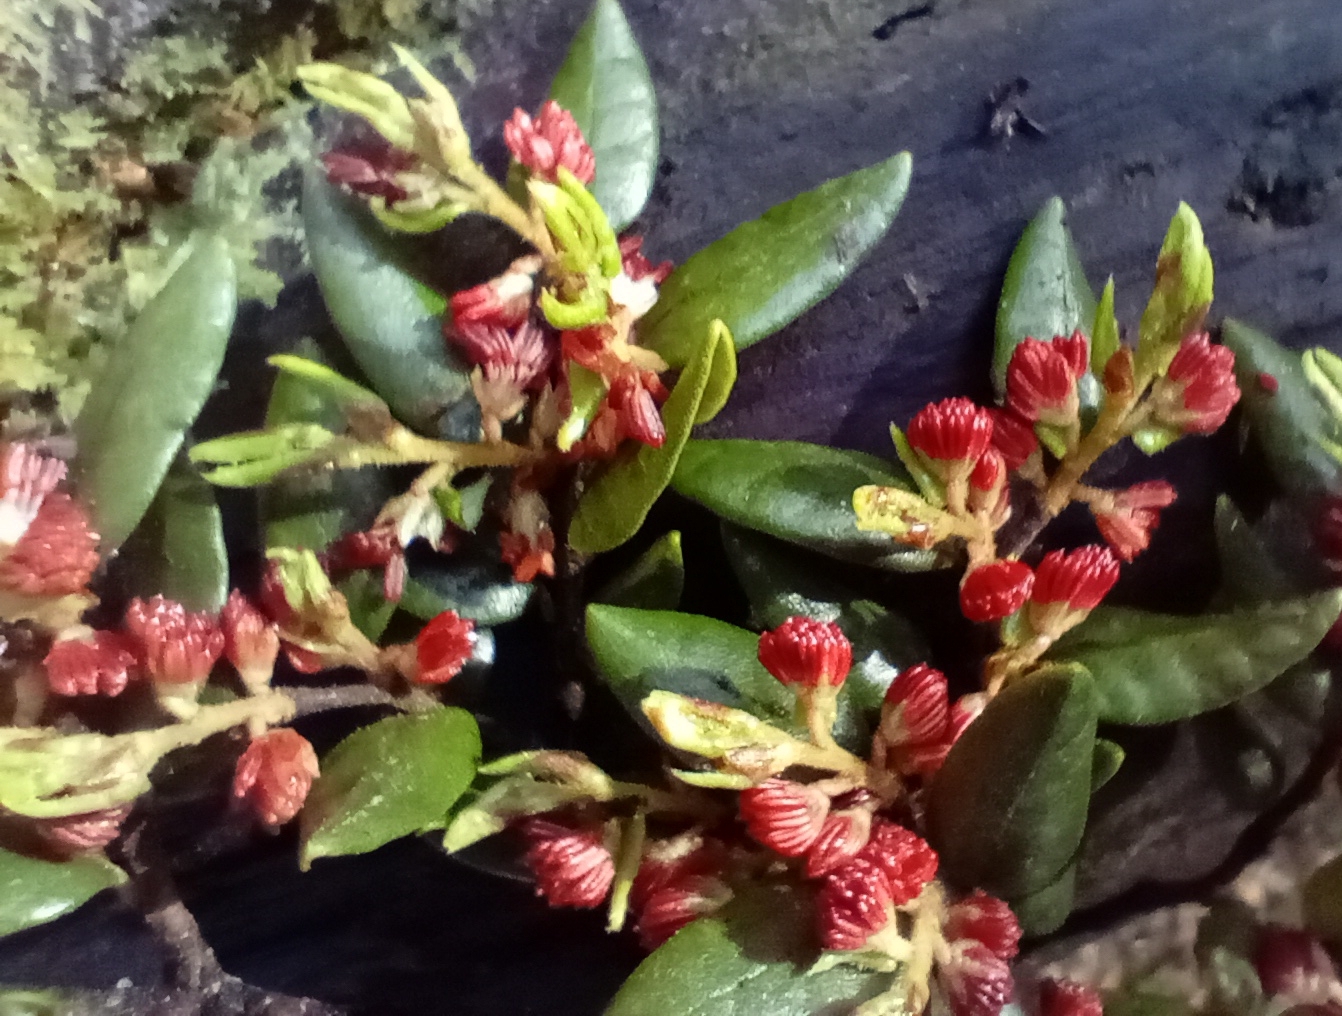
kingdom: Plantae
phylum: Tracheophyta
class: Magnoliopsida
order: Fagales
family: Nothofagaceae
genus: Nothofagus
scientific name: Nothofagus cliffortioides
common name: Mountain beech
